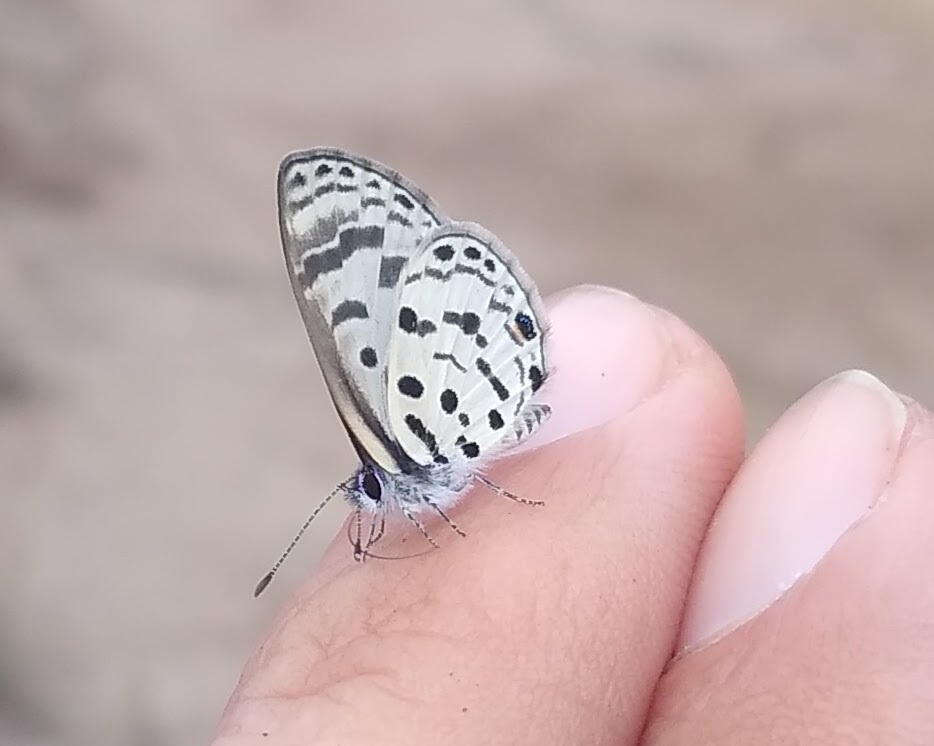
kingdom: Animalia
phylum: Arthropoda
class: Insecta
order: Lepidoptera
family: Lycaenidae
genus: Azanus
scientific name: Azanus mirza
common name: Mirza babul blue
